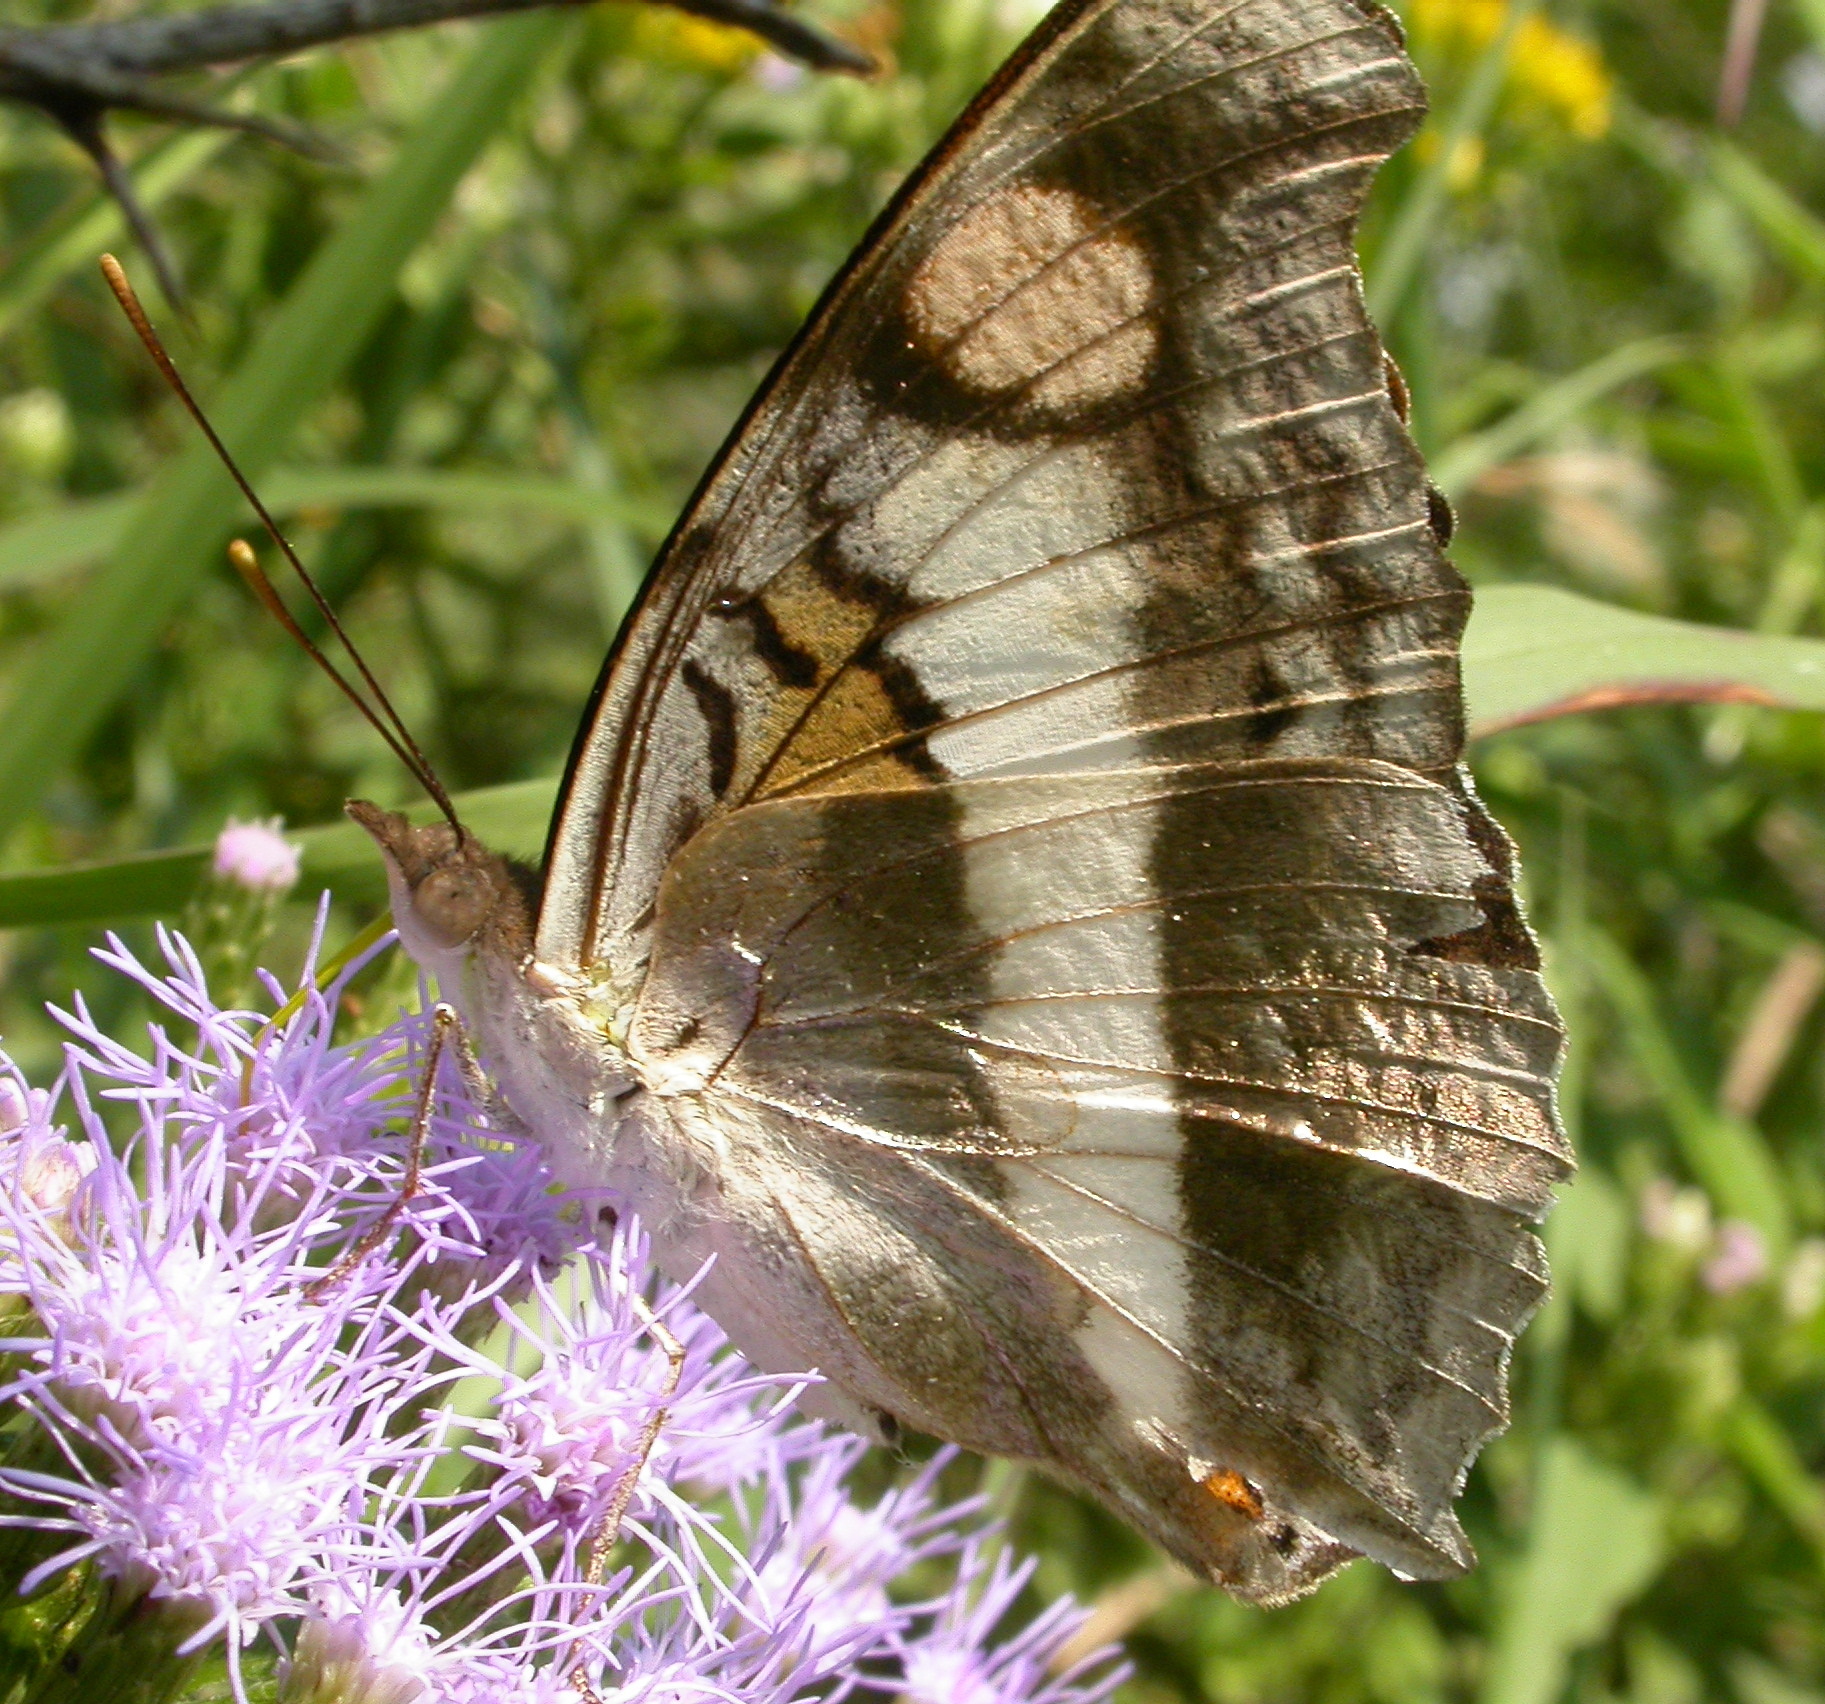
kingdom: Animalia
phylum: Arthropoda
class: Insecta
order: Lepidoptera
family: Nymphalidae
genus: Doxocopa
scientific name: Doxocopa laure
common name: Silver emperor
